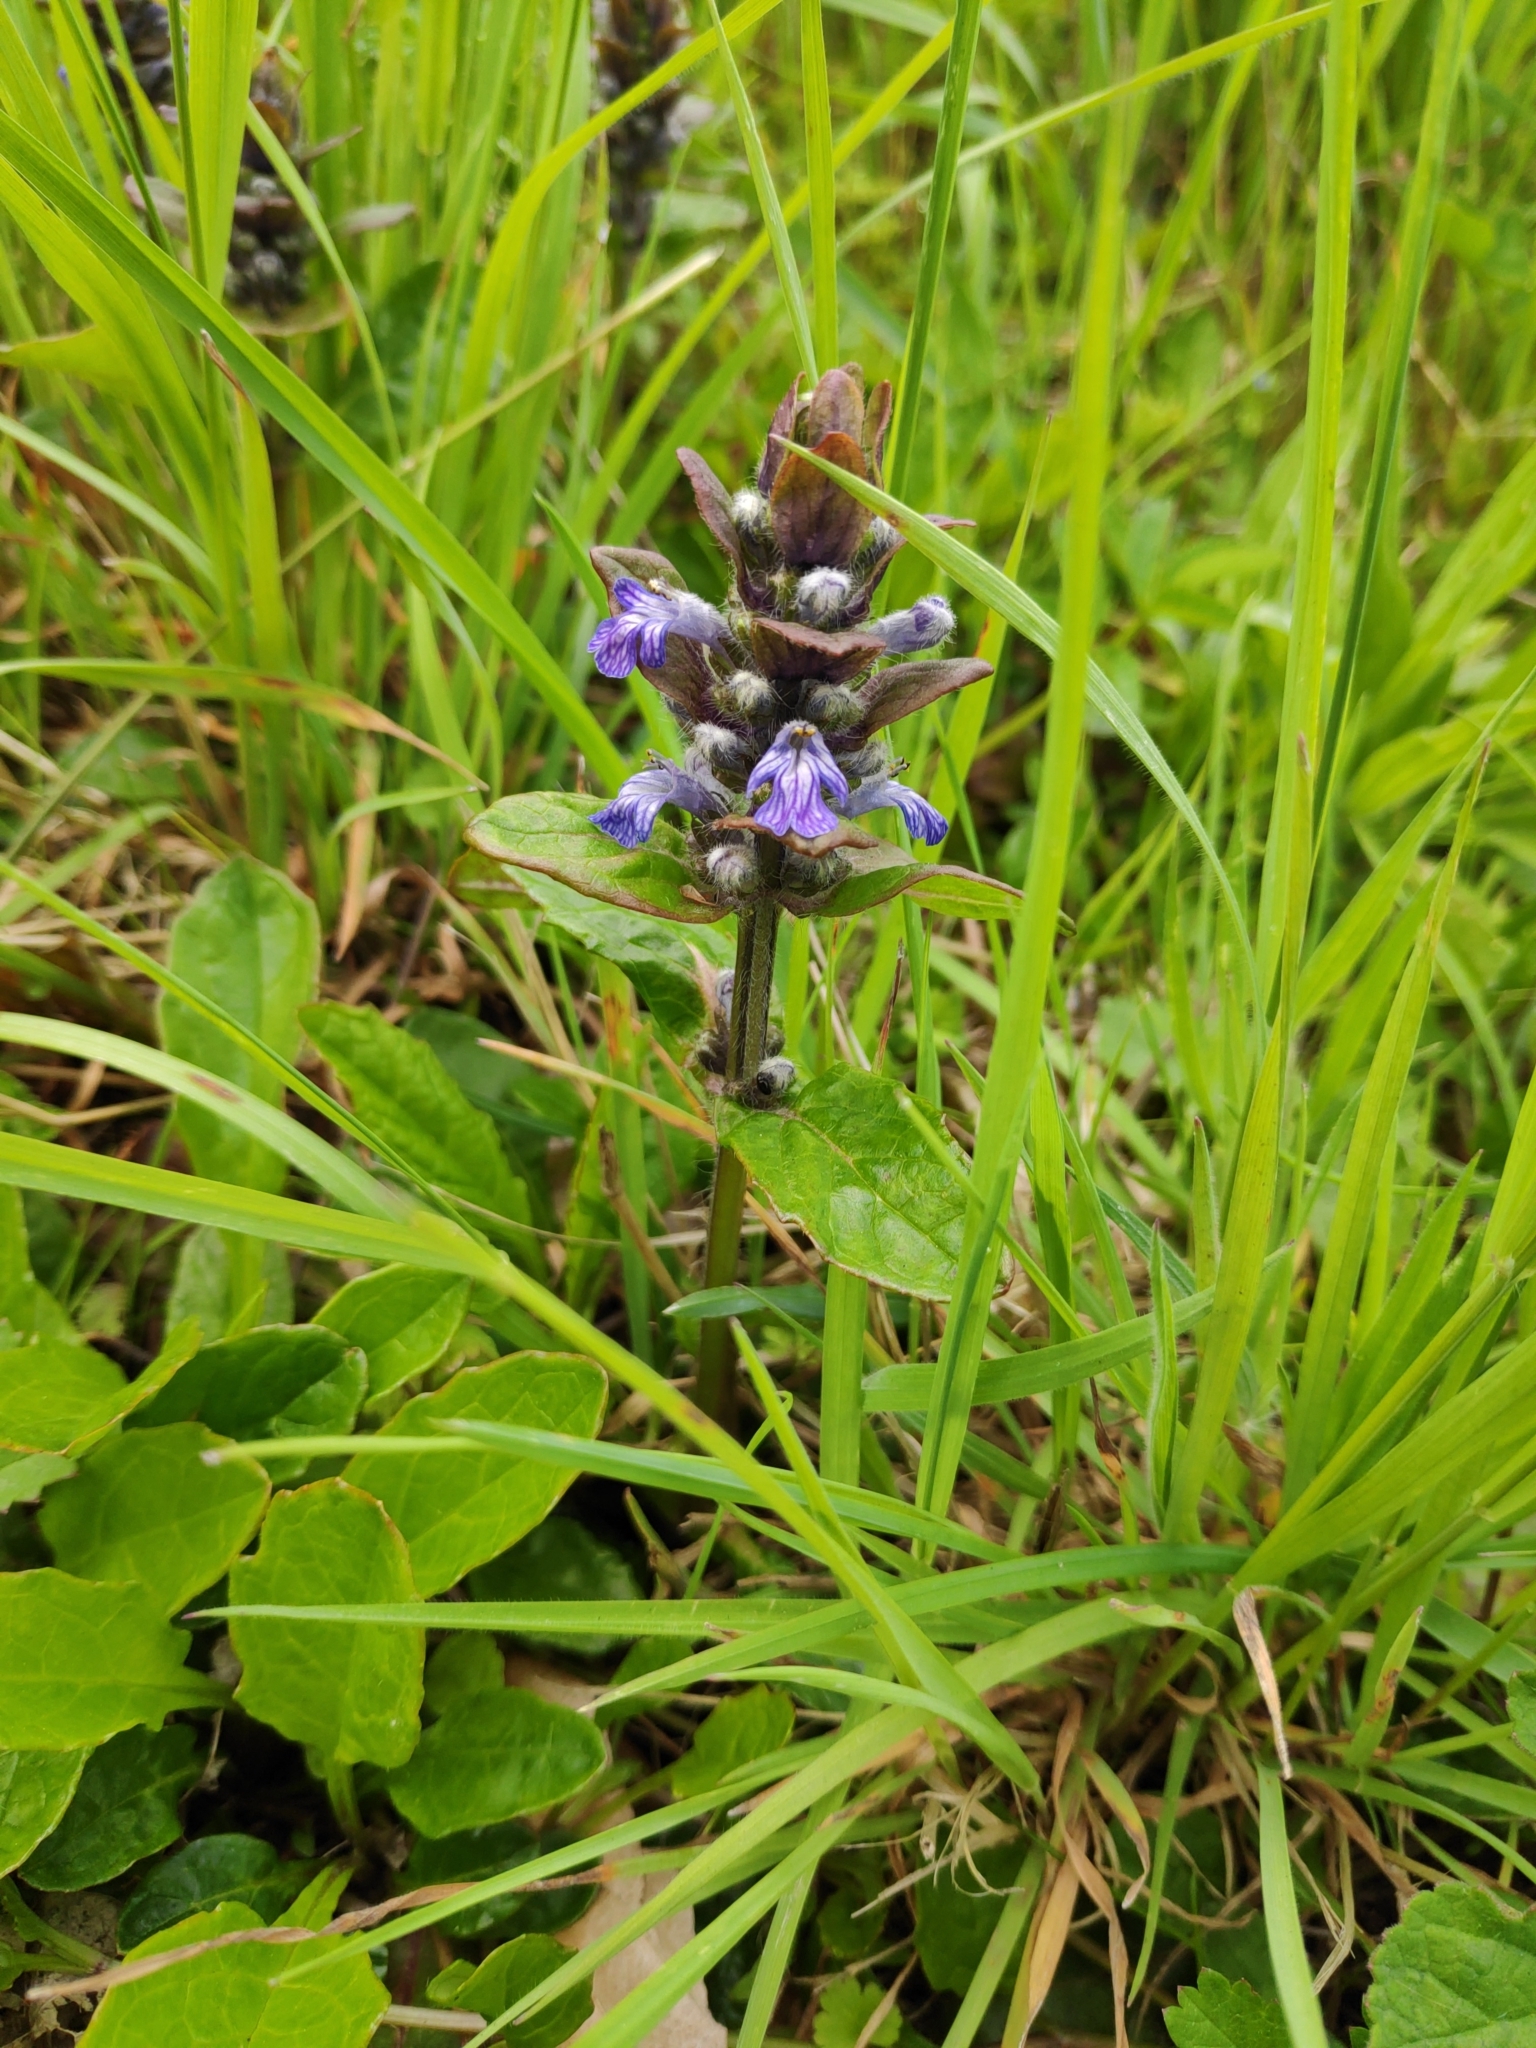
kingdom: Plantae
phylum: Tracheophyta
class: Magnoliopsida
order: Lamiales
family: Lamiaceae
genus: Ajuga
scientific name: Ajuga reptans
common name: Bugle
